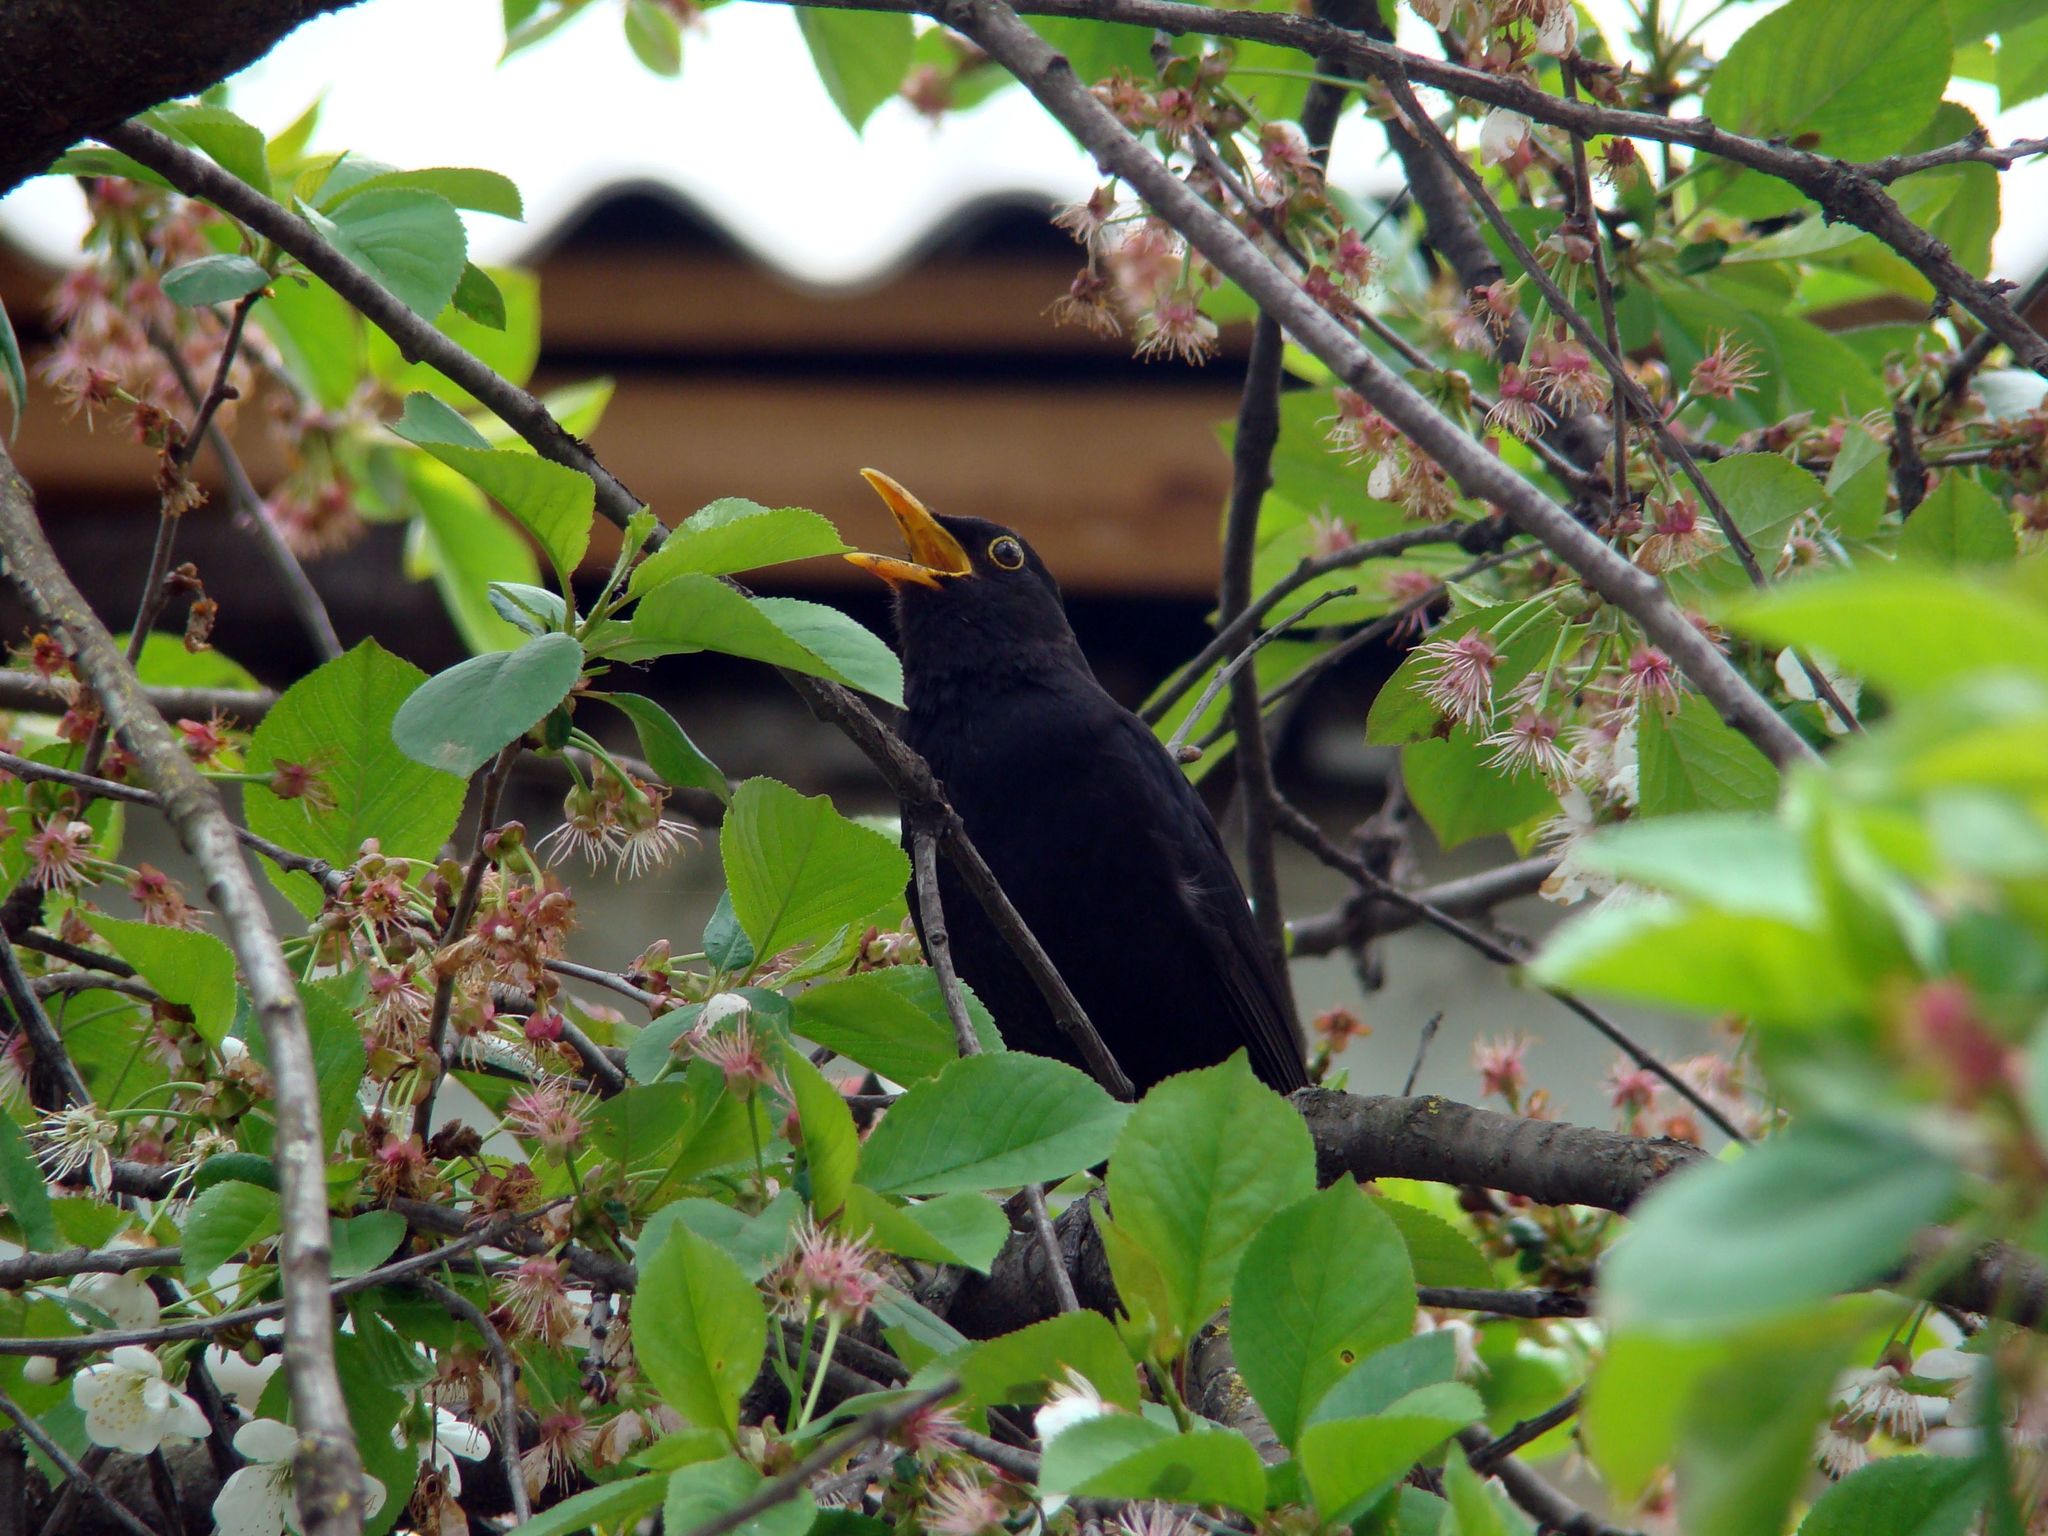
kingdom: Animalia
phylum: Chordata
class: Aves
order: Passeriformes
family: Turdidae
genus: Turdus
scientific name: Turdus merula
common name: Common blackbird
